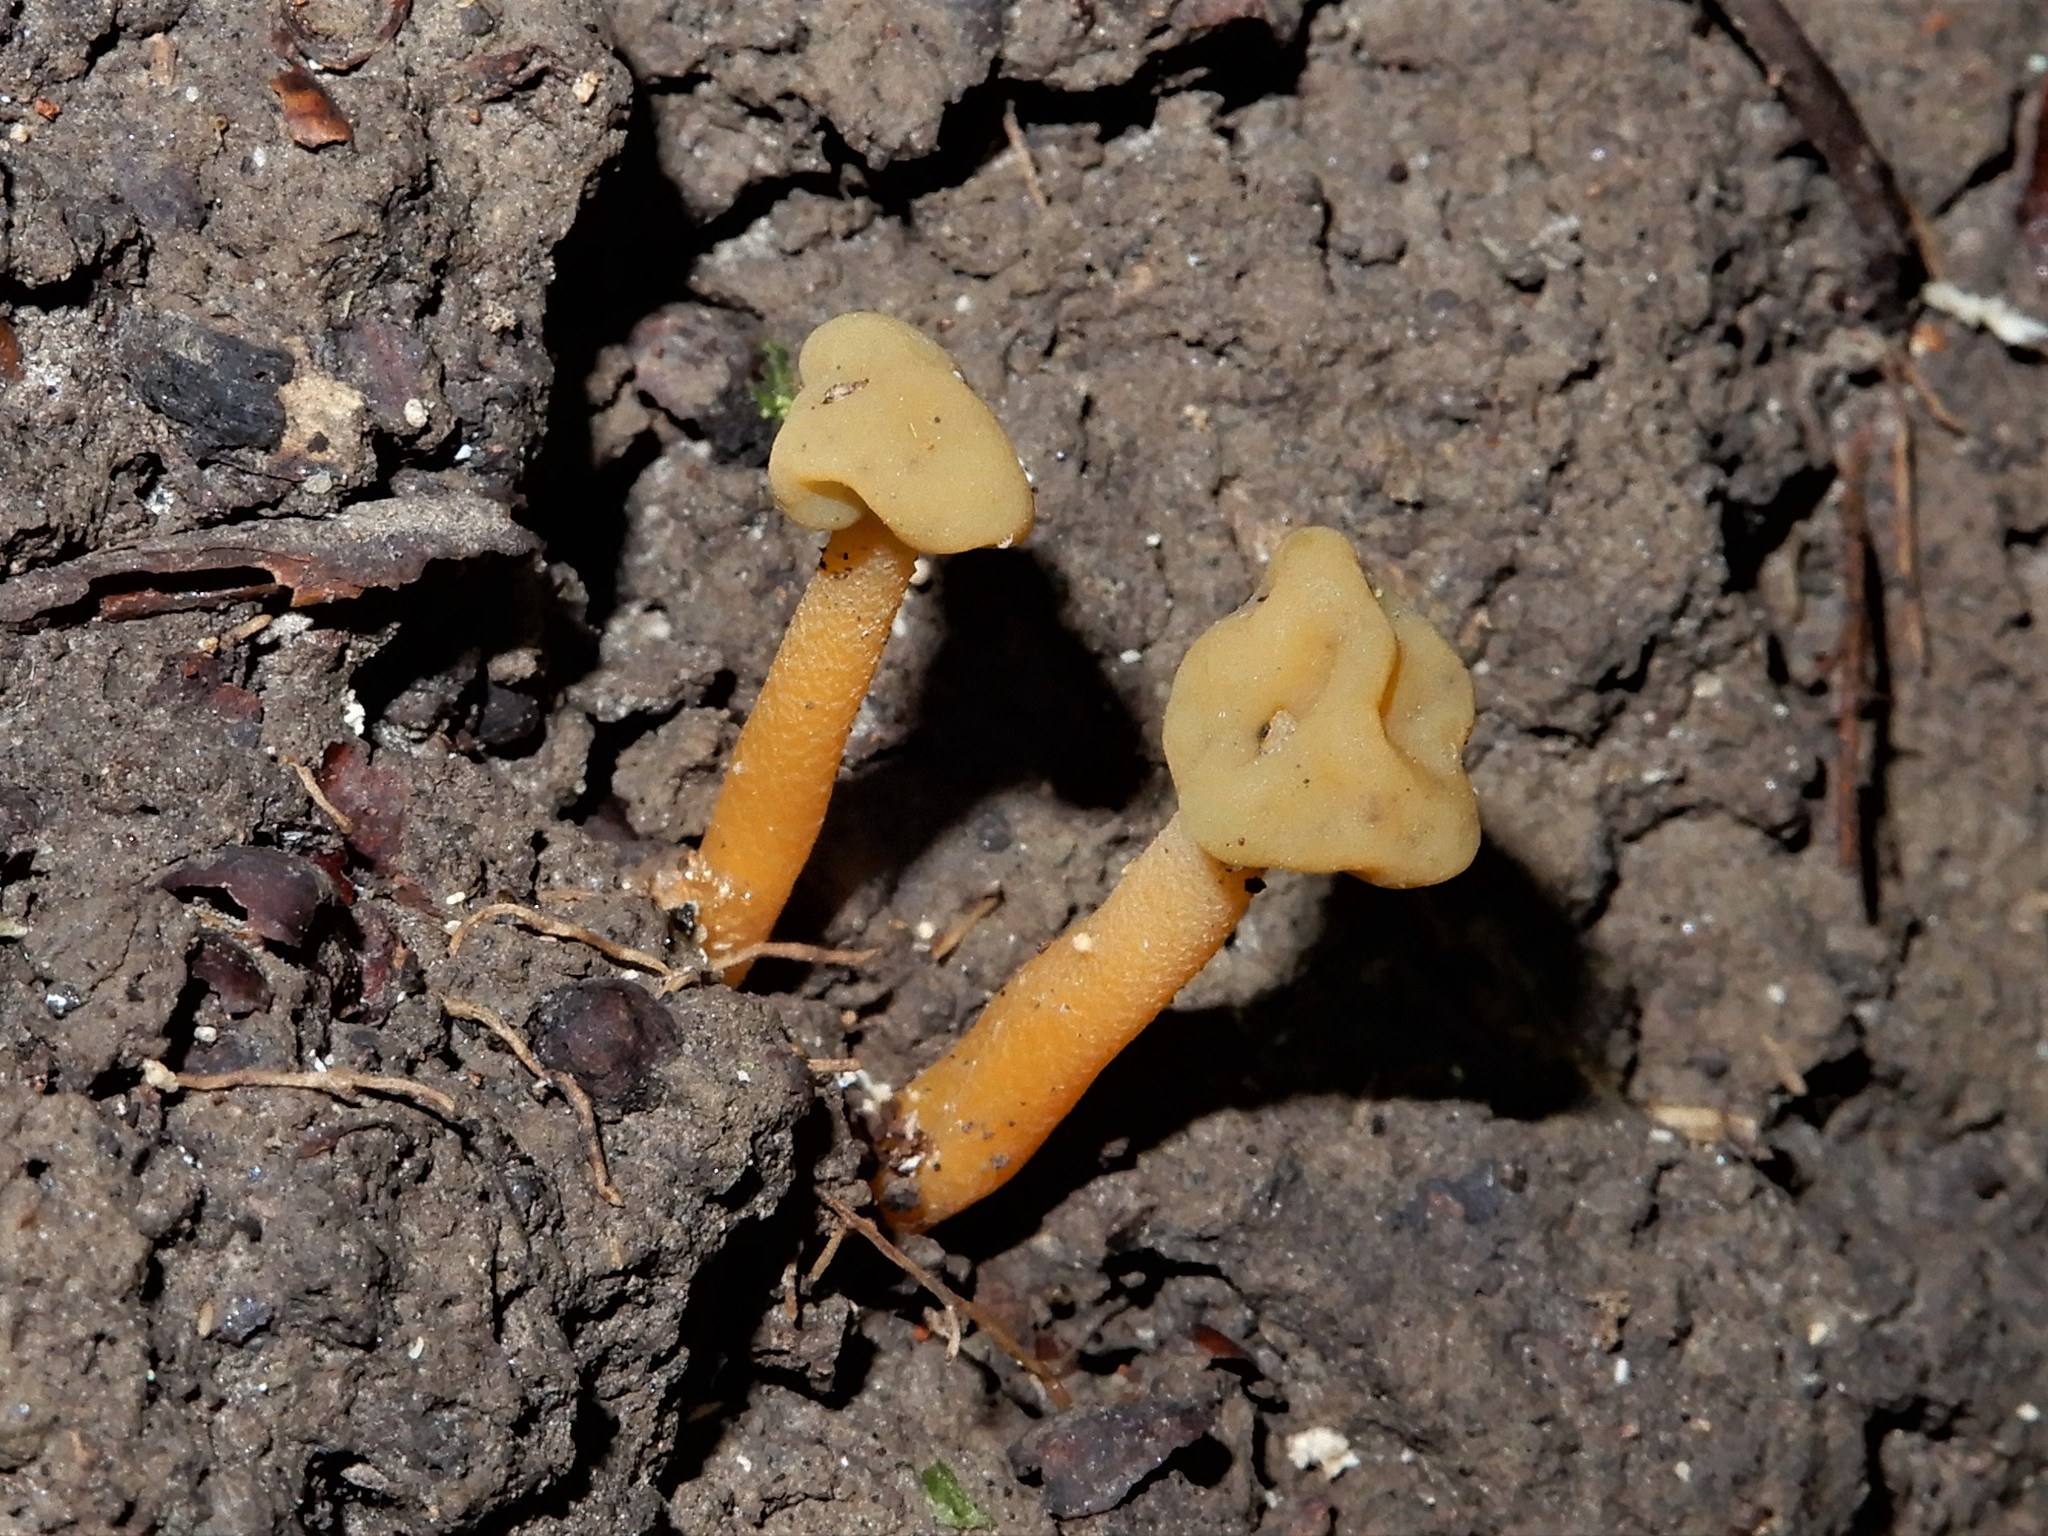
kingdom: Fungi
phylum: Ascomycota
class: Leotiomycetes
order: Leotiales
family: Leotiaceae
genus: Leotia
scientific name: Leotia lubrica
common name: Jellybaby
